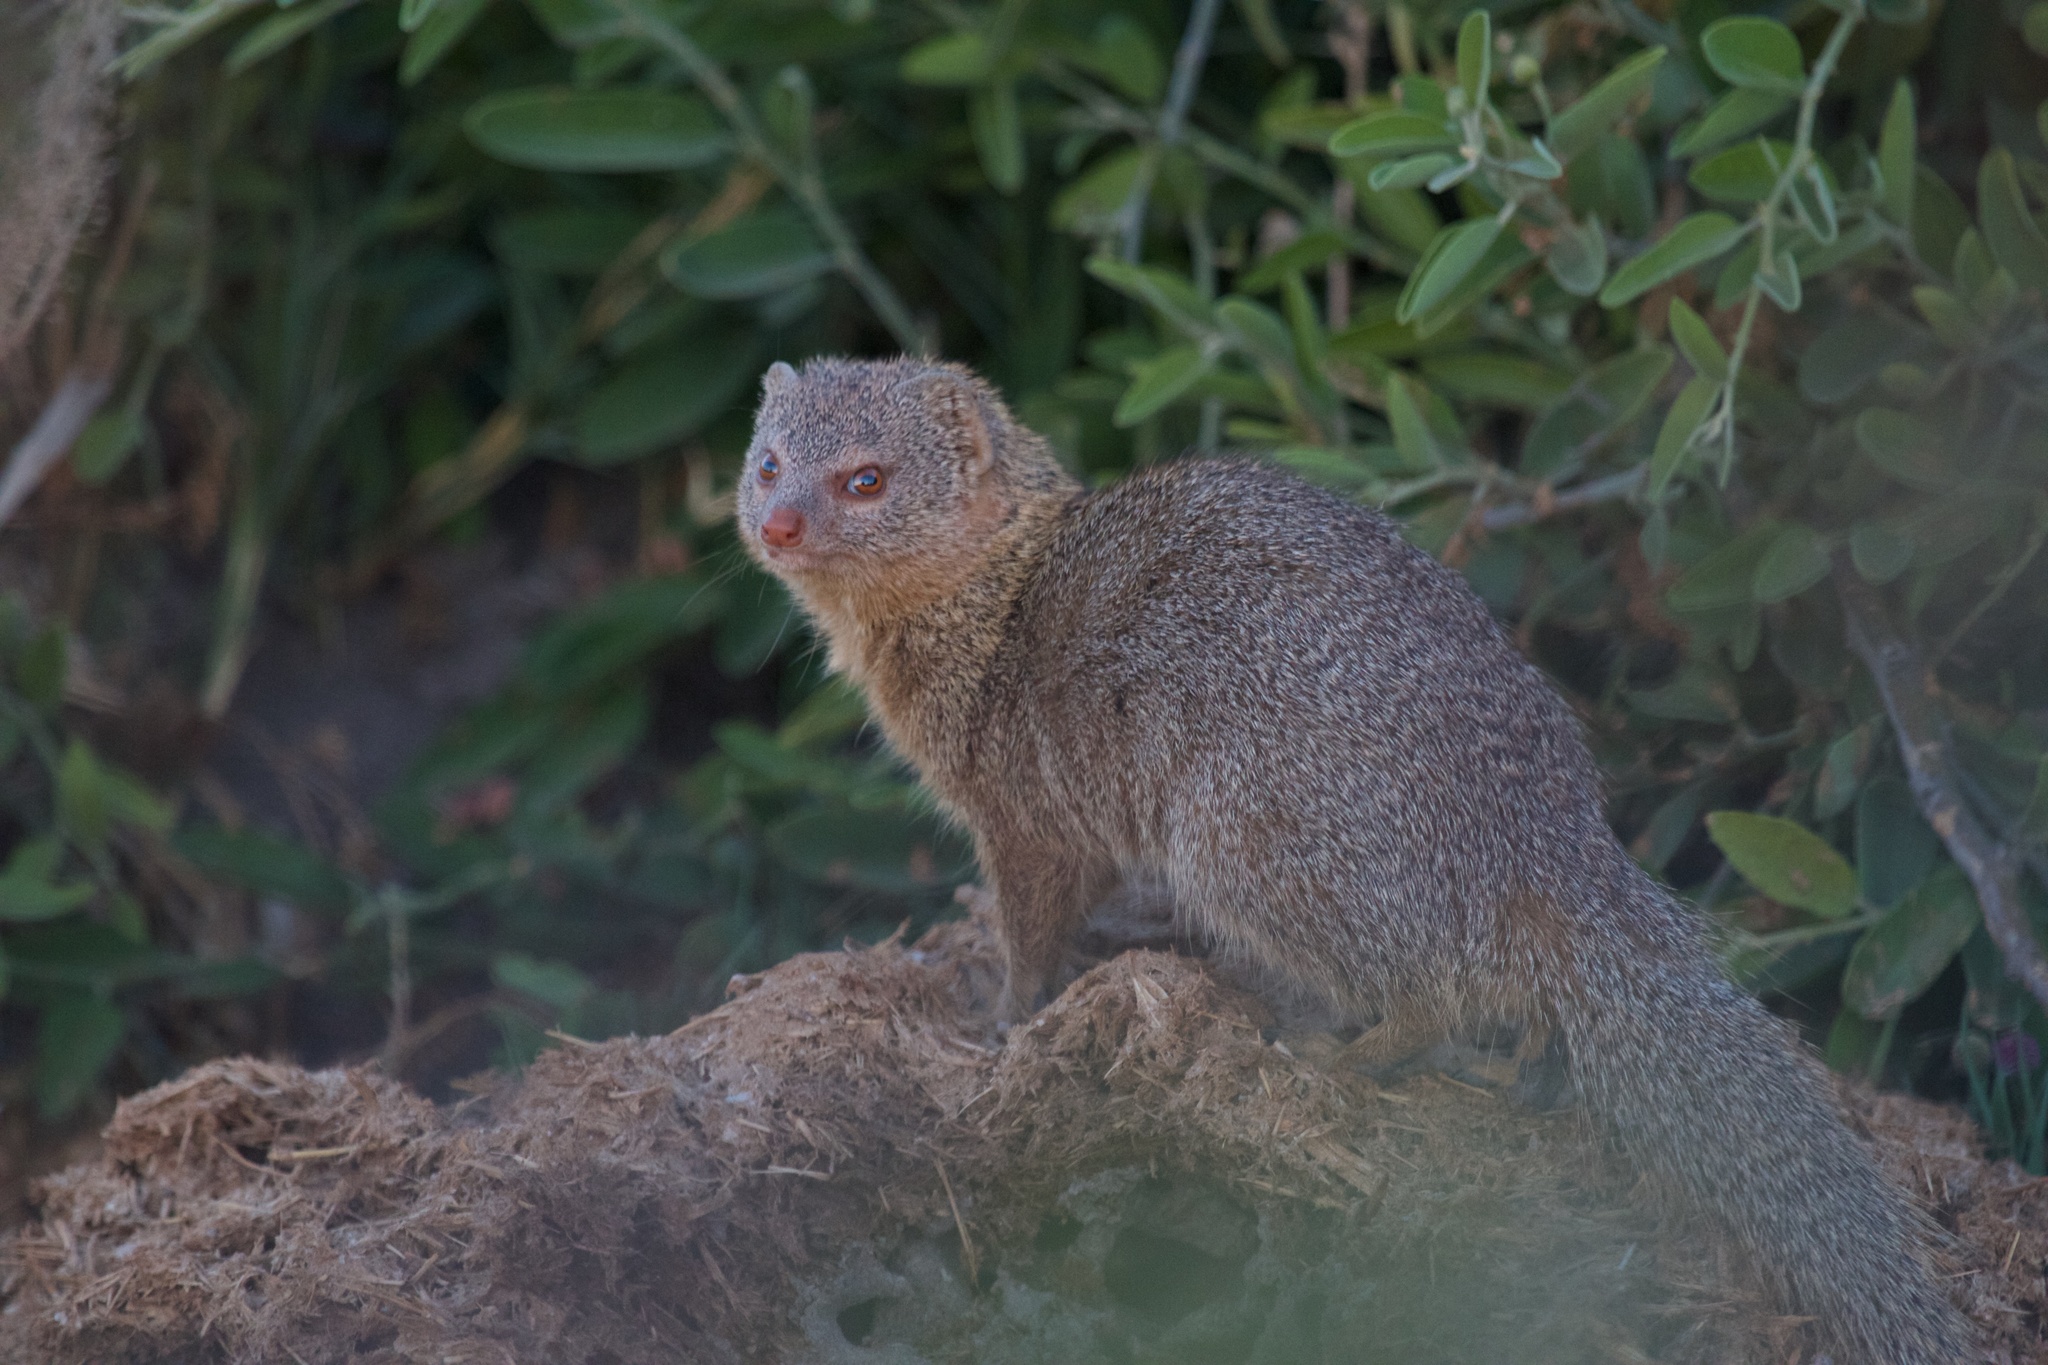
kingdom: Animalia
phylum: Chordata
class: Mammalia
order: Carnivora
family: Herpestidae
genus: Helogale
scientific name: Helogale parvula
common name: Common dwarf mongoose
